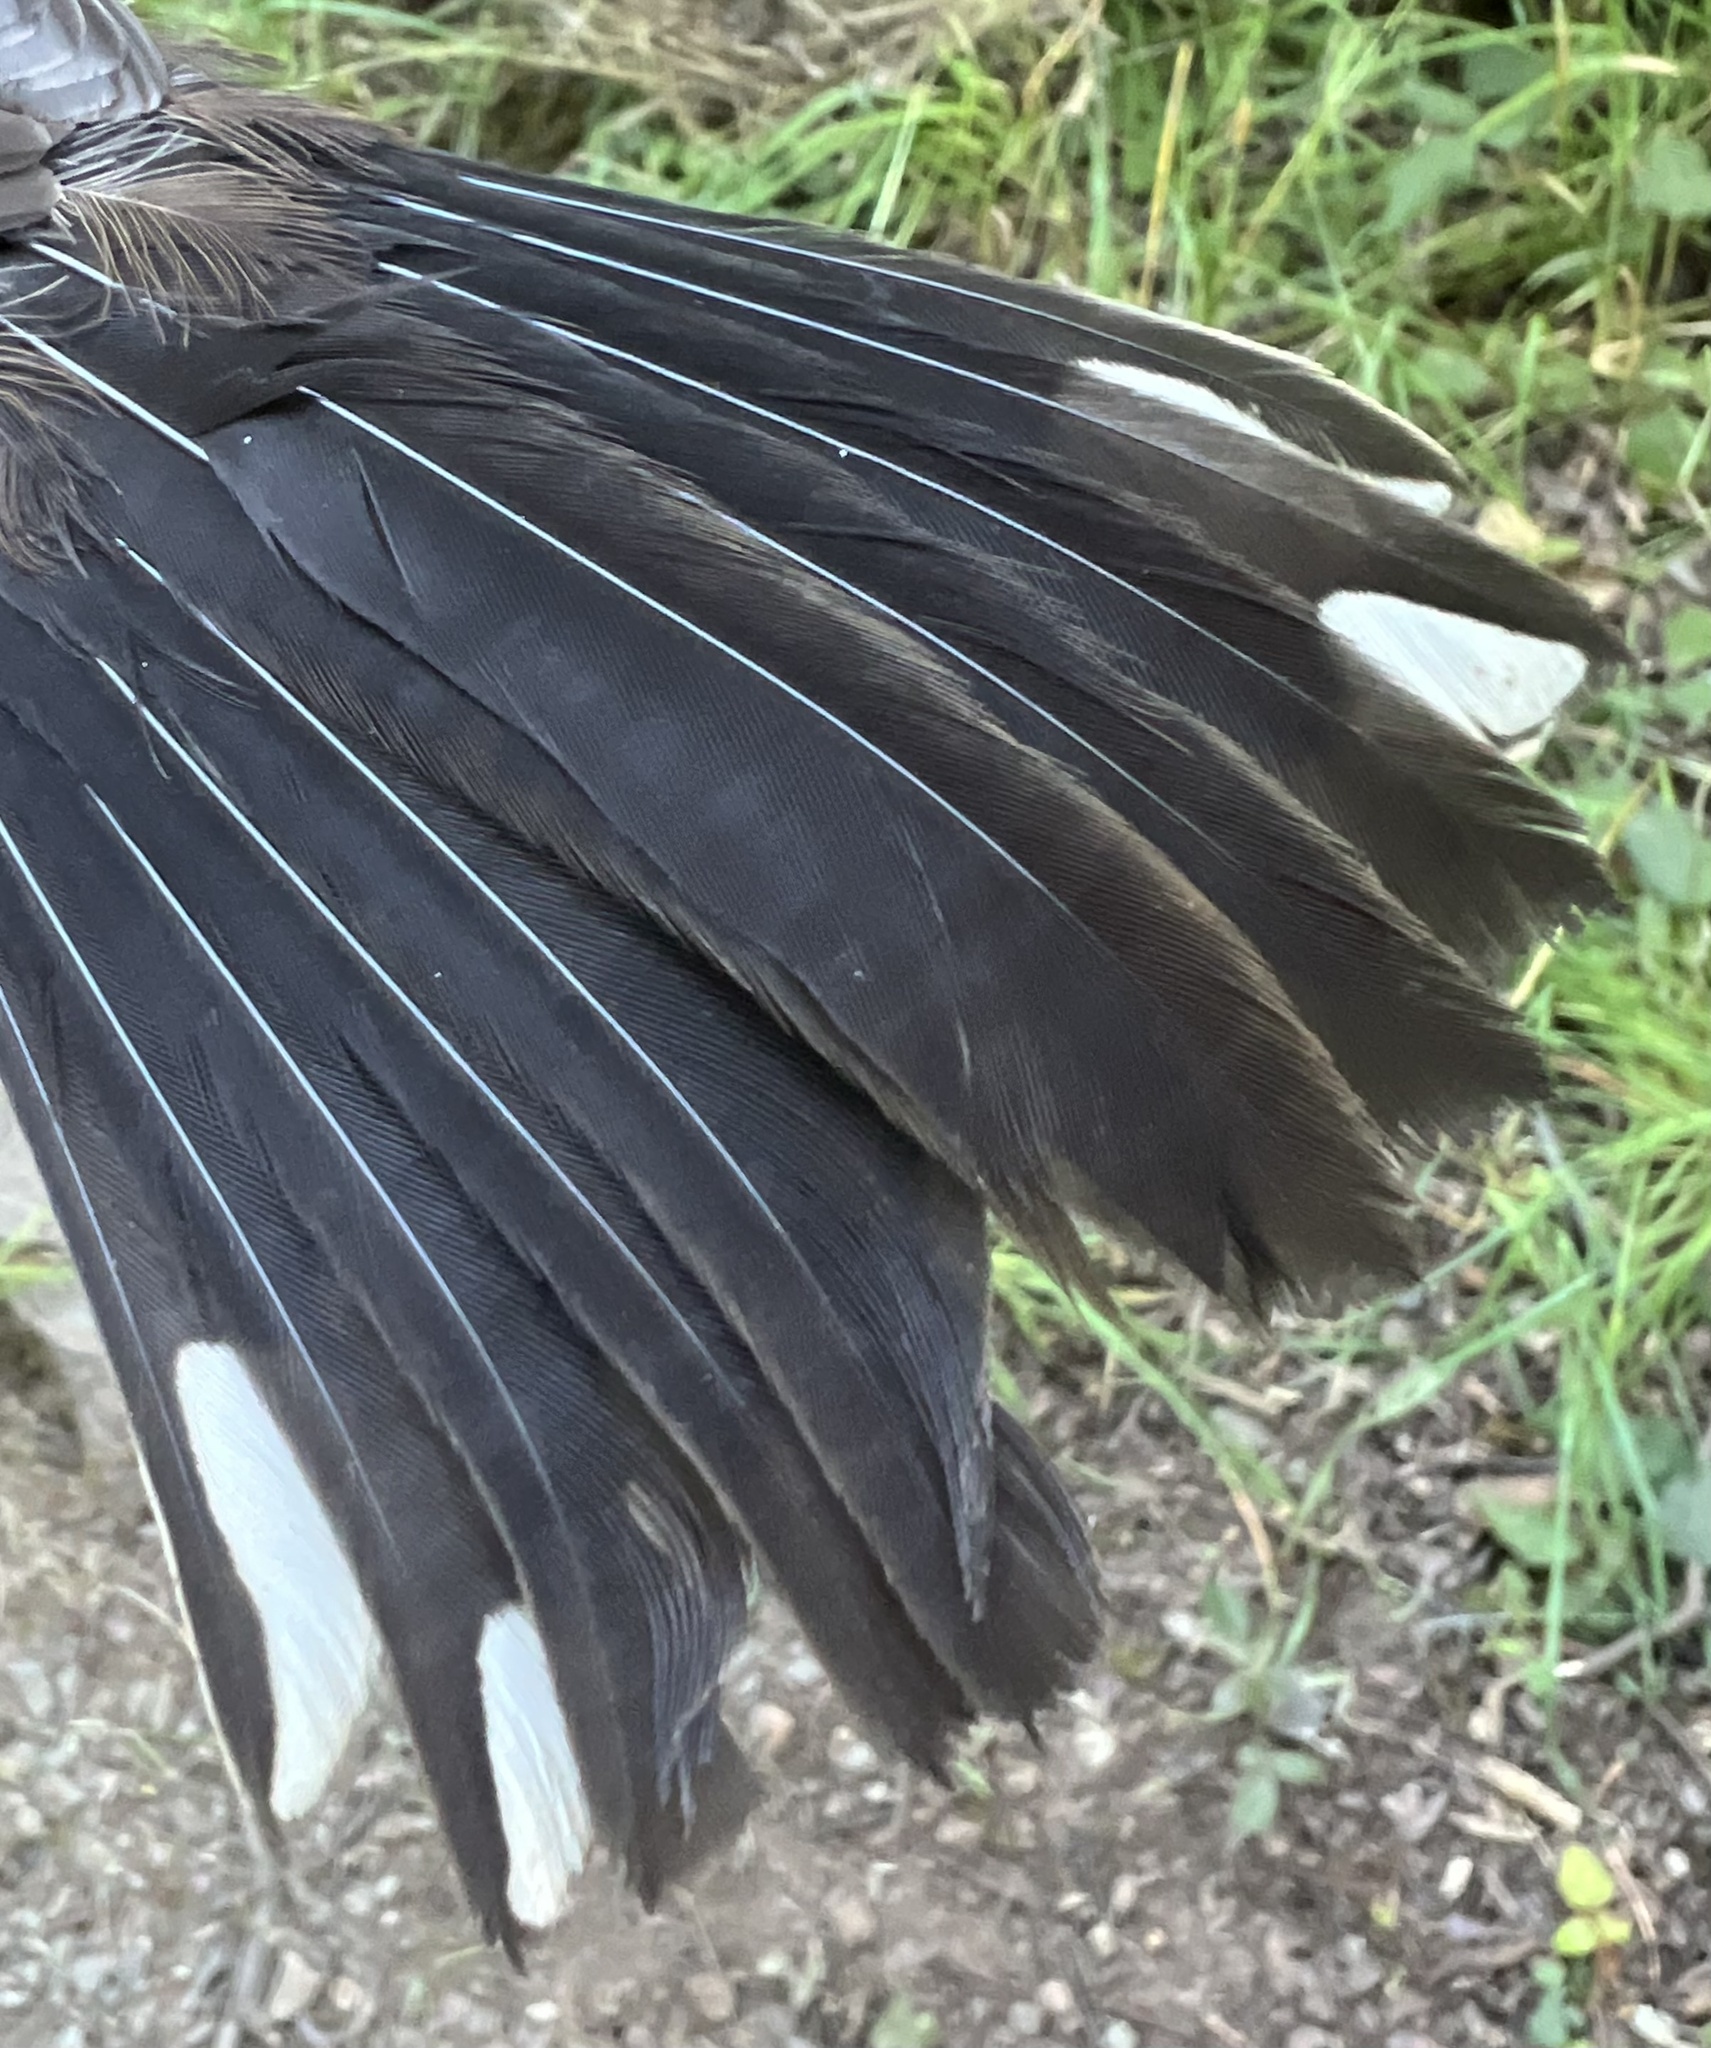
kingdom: Animalia
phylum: Chordata
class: Aves
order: Passeriformes
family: Passerellidae
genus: Pipilo
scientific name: Pipilo maculatus
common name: Spotted towhee
